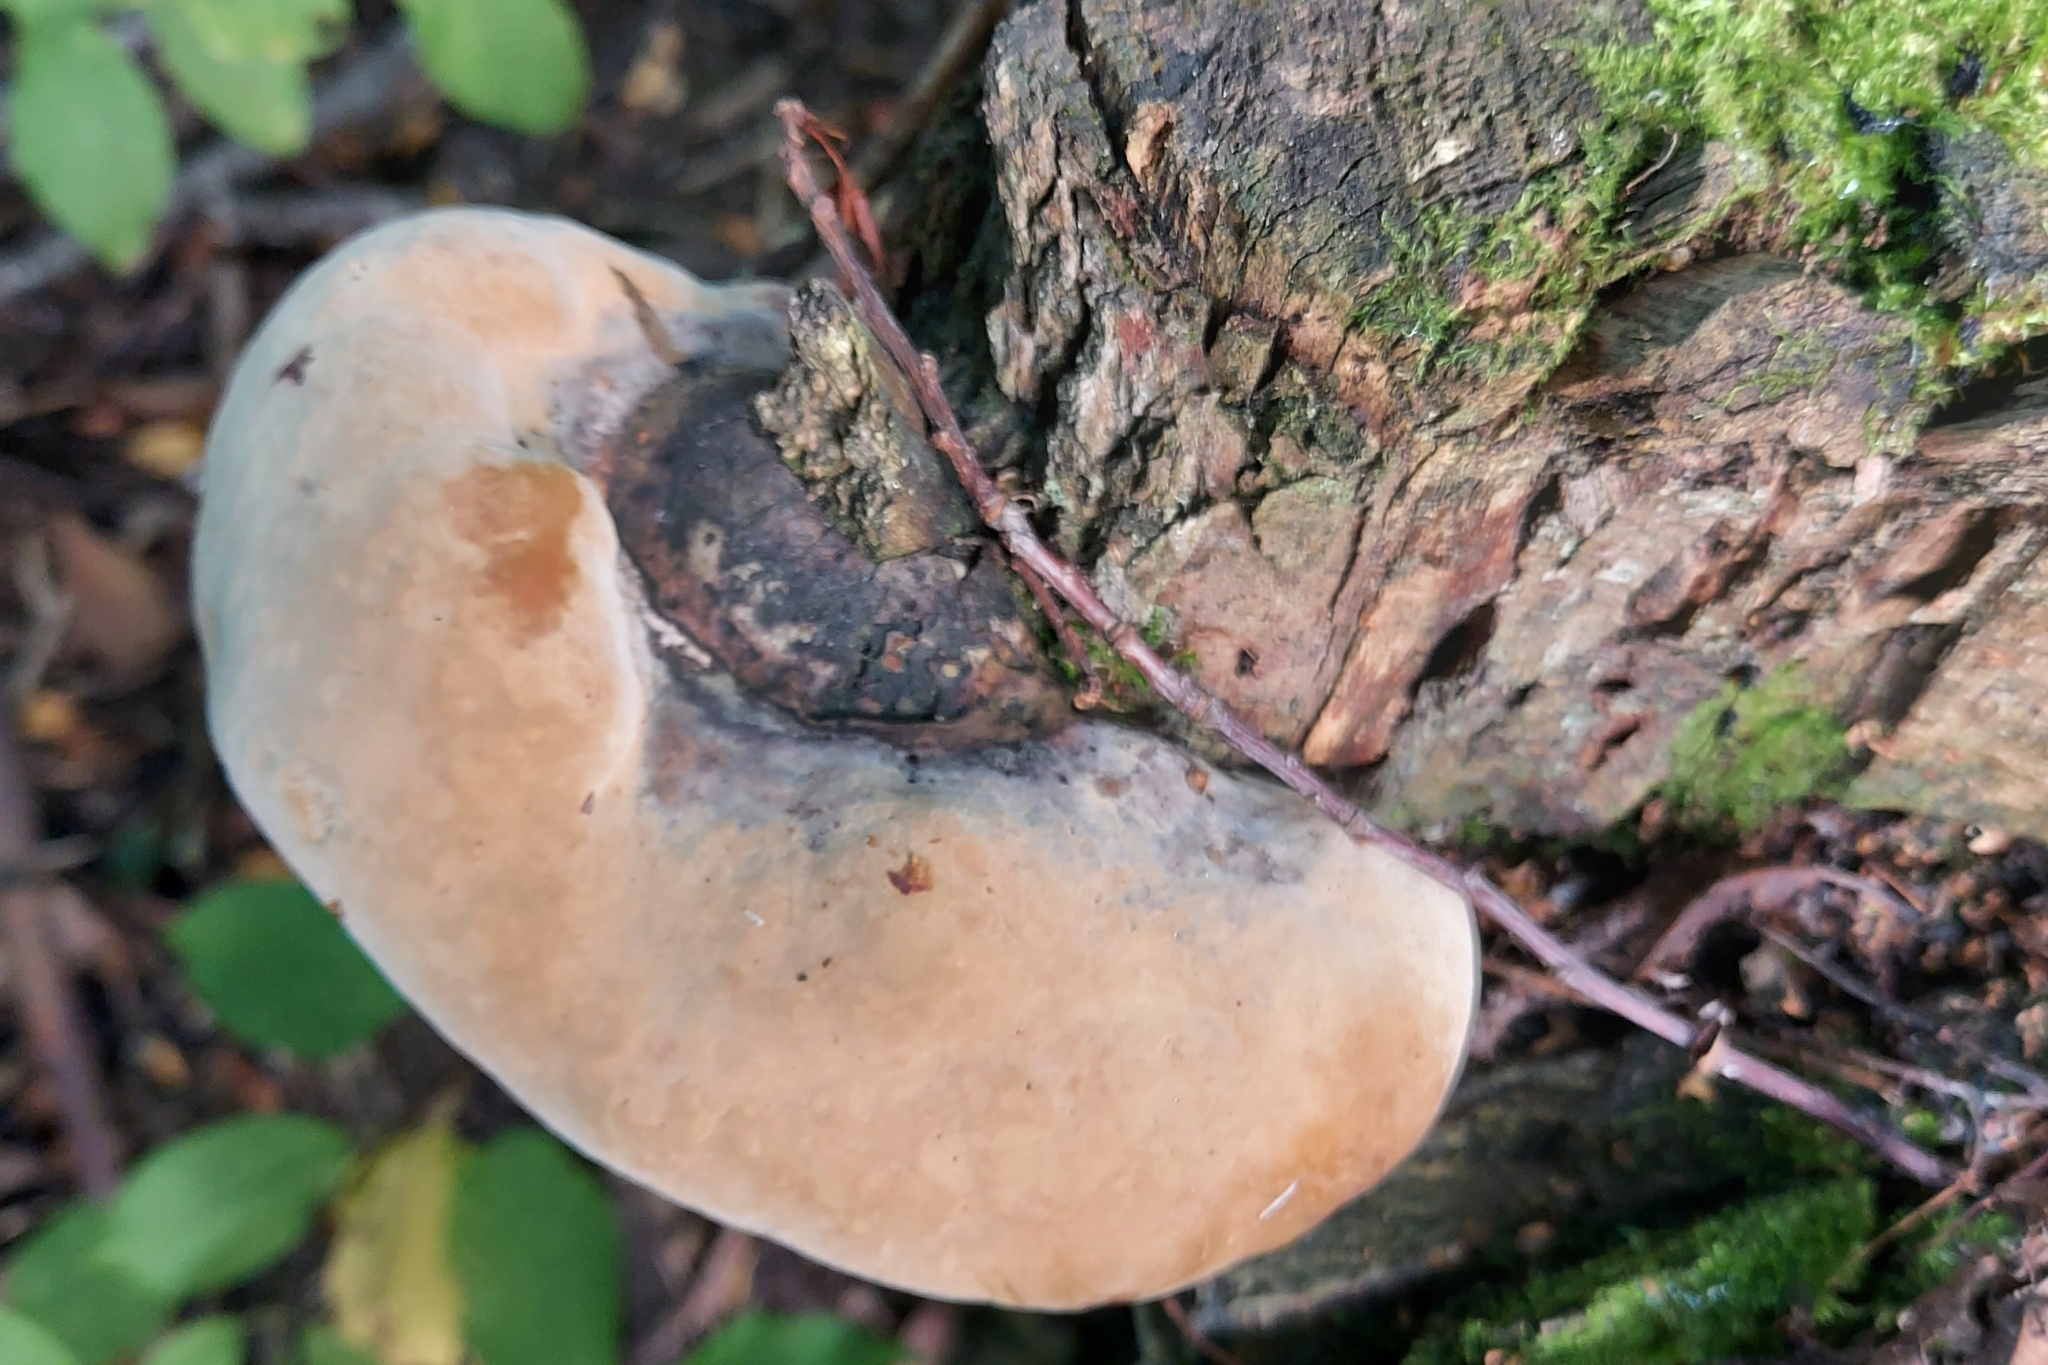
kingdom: Fungi
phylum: Basidiomycota
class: Agaricomycetes
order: Hymenochaetales
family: Hymenochaetaceae
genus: Phellinus
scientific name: Phellinus igniarius
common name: Willow bracket
